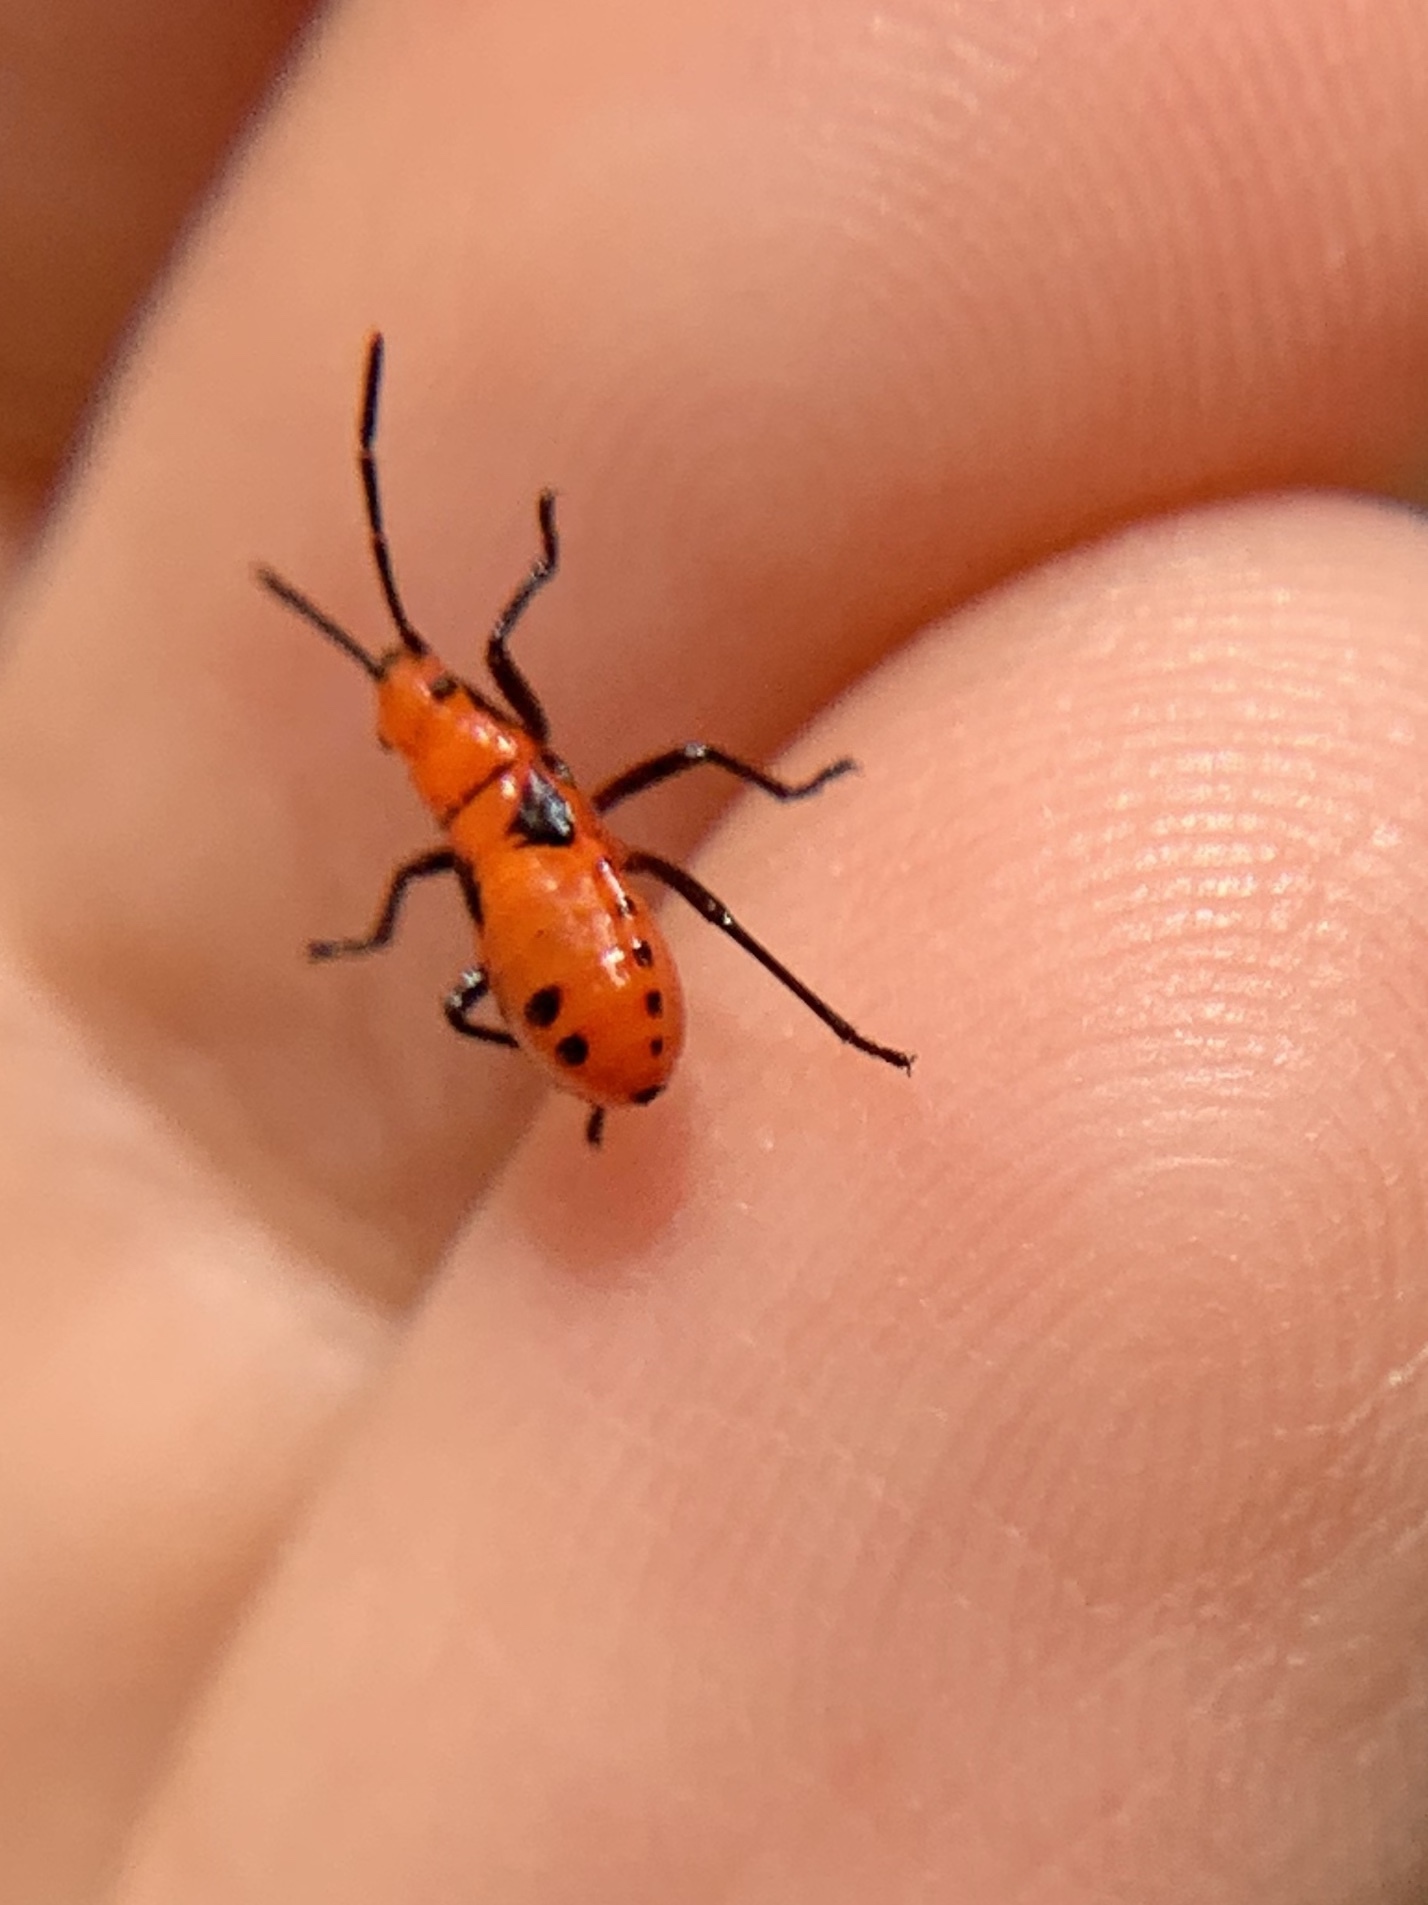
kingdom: Animalia
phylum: Arthropoda
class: Insecta
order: Hemiptera
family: Lygaeidae
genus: Oncopeltus
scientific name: Oncopeltus aulicus
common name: Lygaeid bug
